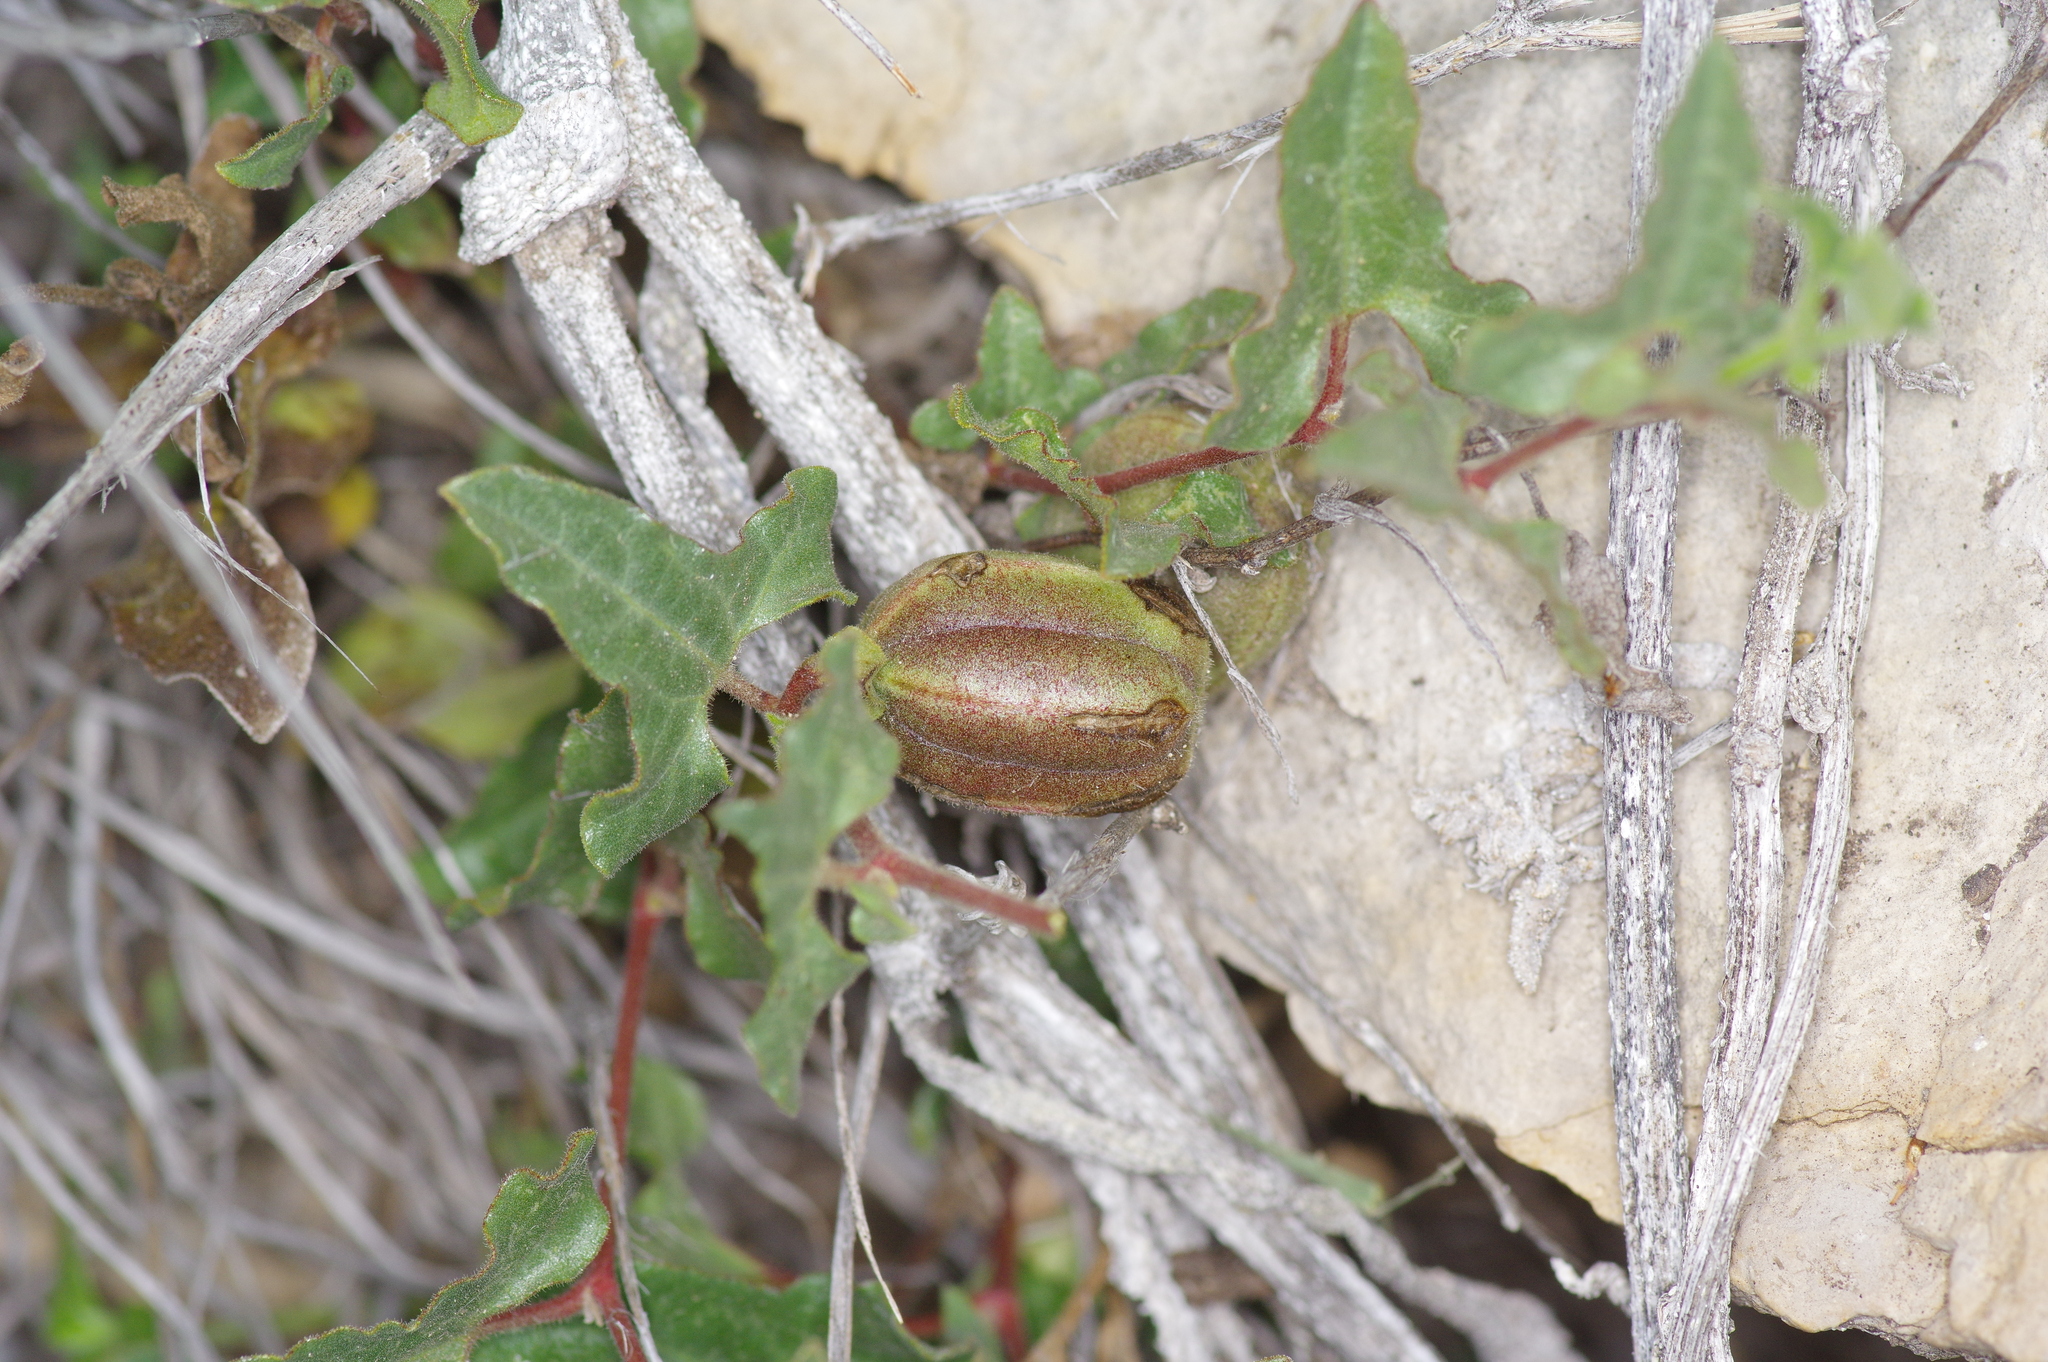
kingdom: Plantae
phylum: Tracheophyta
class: Magnoliopsida
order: Piperales
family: Aristolochiaceae
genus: Aristolochia
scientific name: Aristolochia coryi
